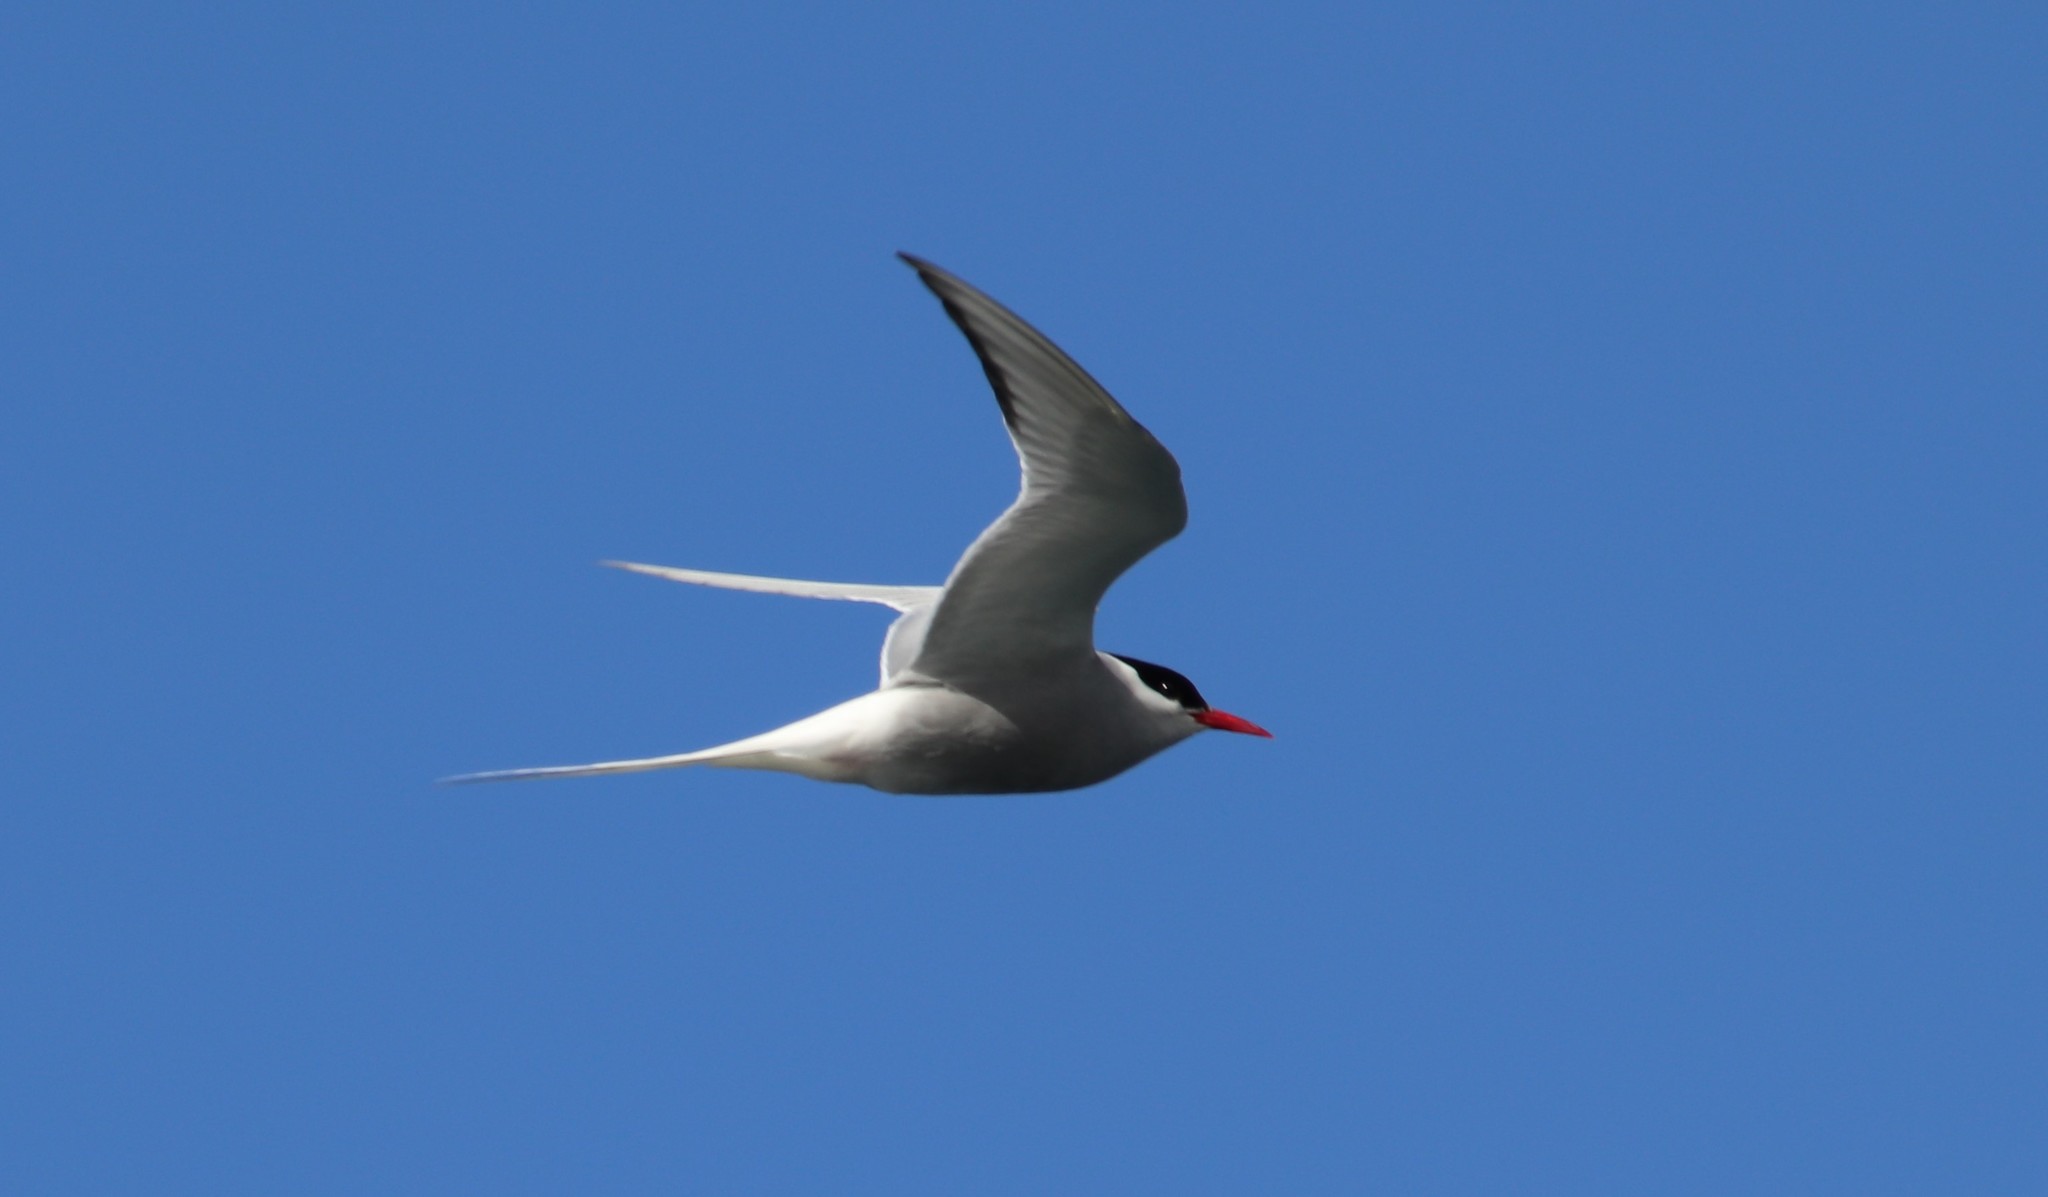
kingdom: Animalia
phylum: Chordata
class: Aves
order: Charadriiformes
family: Laridae
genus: Sterna
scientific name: Sterna paradisaea
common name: Arctic tern
